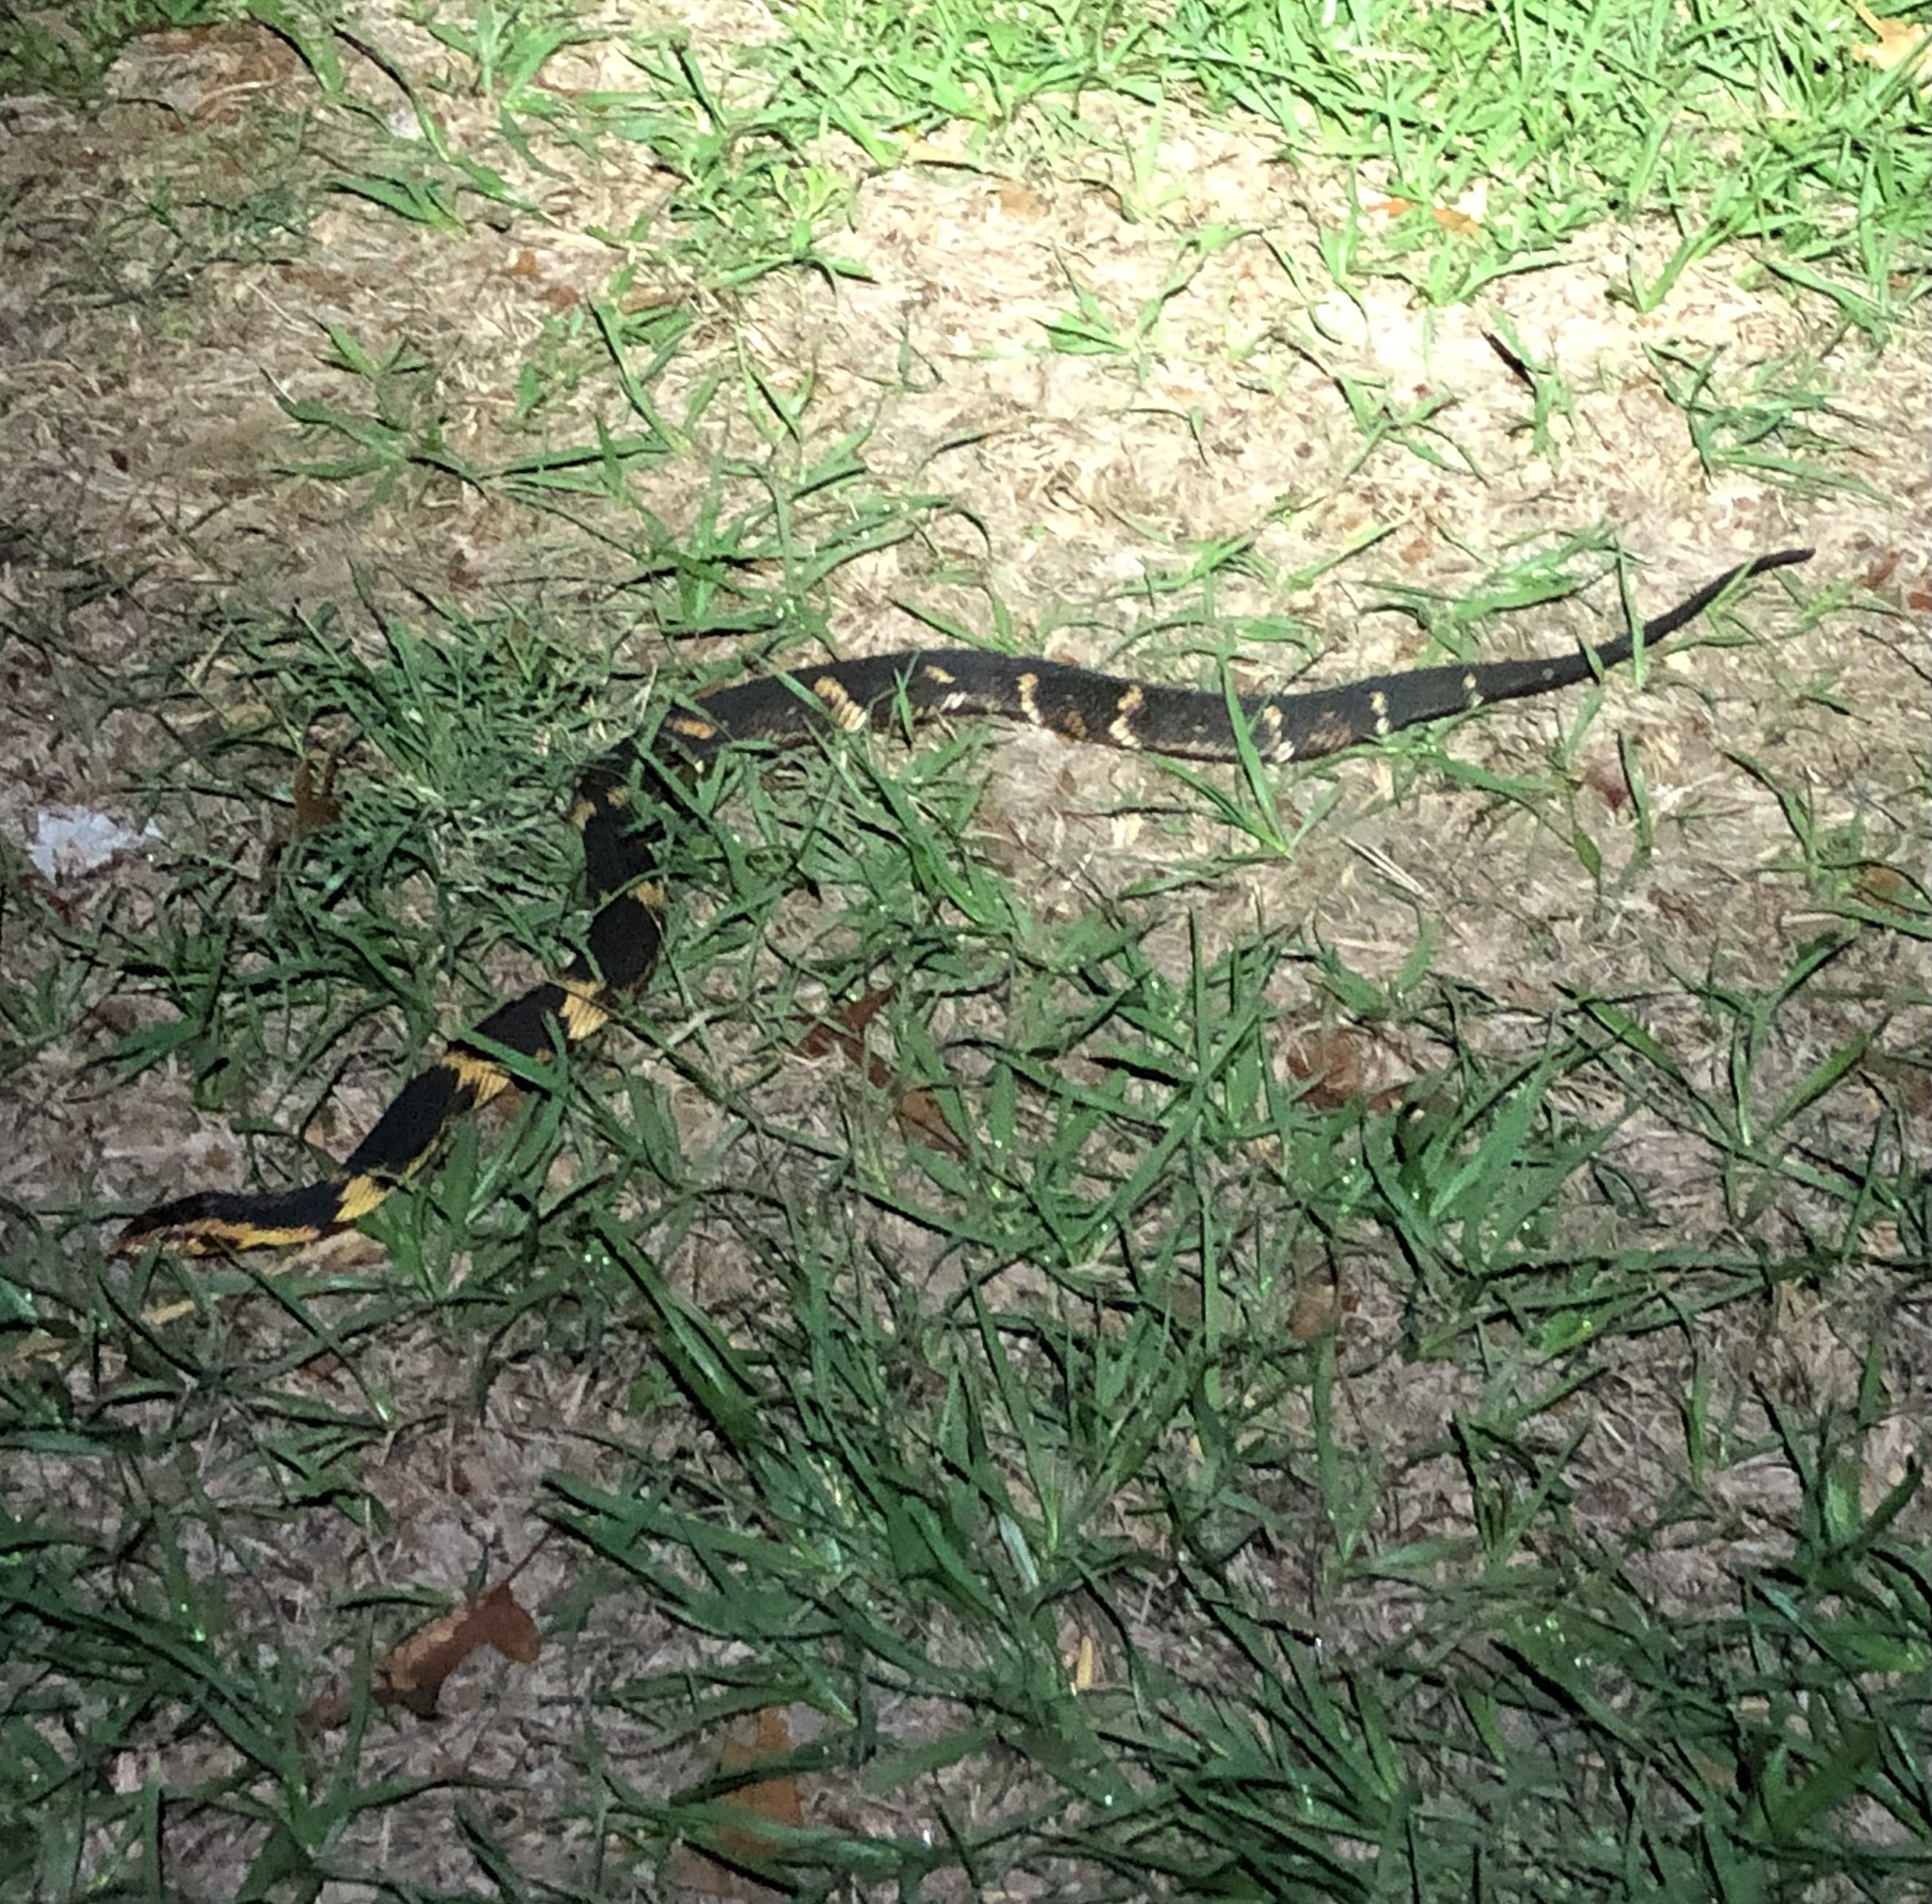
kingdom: Animalia
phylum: Chordata
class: Squamata
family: Colubridae
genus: Nerodia
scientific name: Nerodia fasciata
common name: Southern water snake
